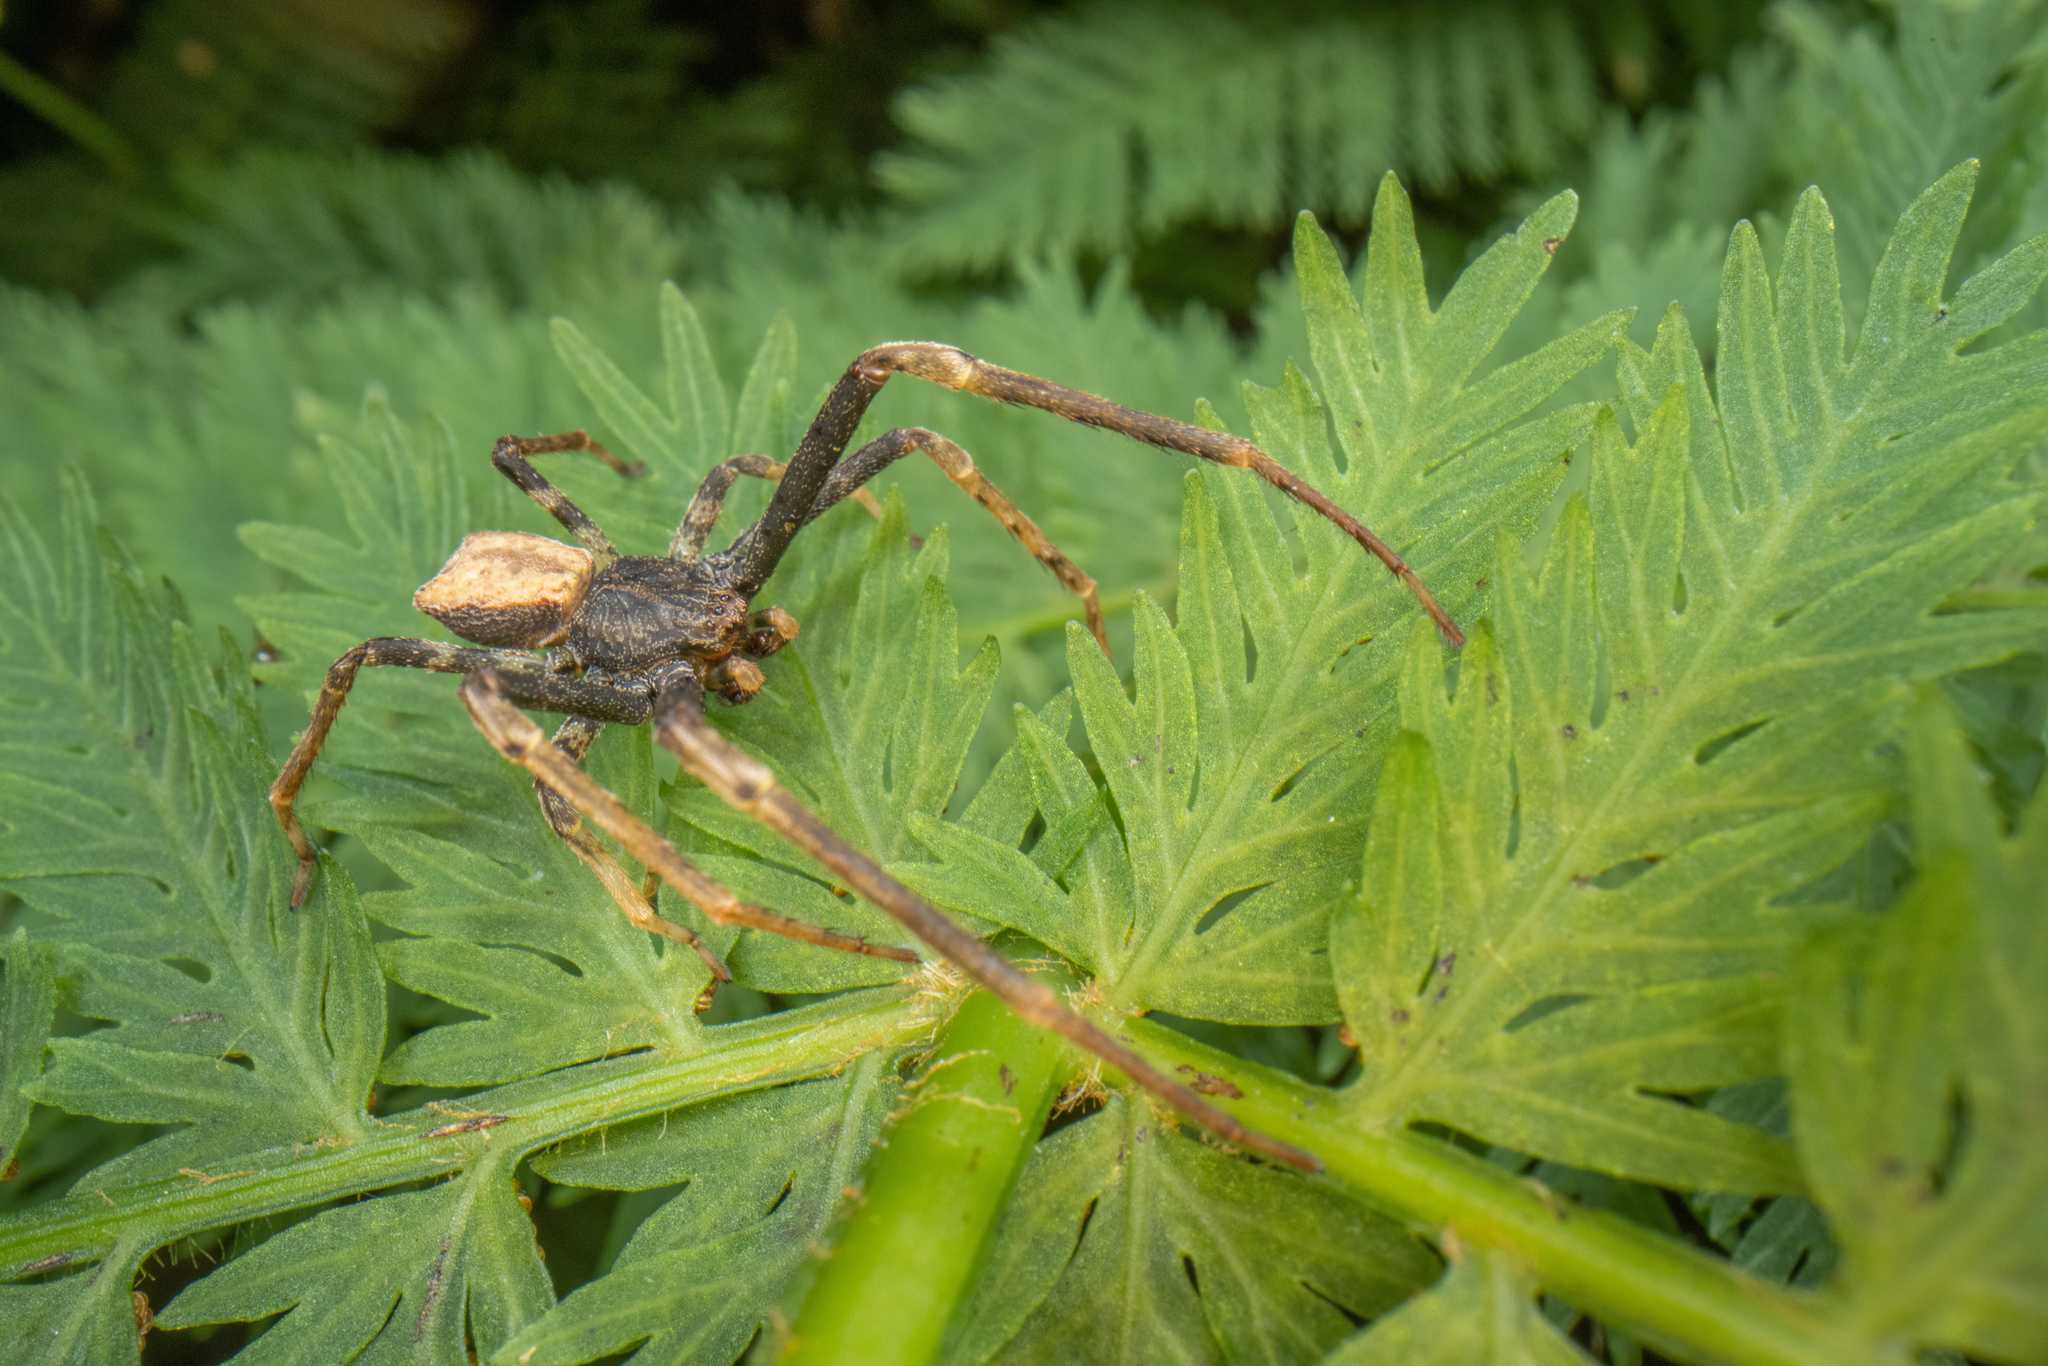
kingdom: Animalia
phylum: Arthropoda
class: Arachnida
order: Araneae
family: Thomisidae
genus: Sidymella
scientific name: Sidymella angularis
